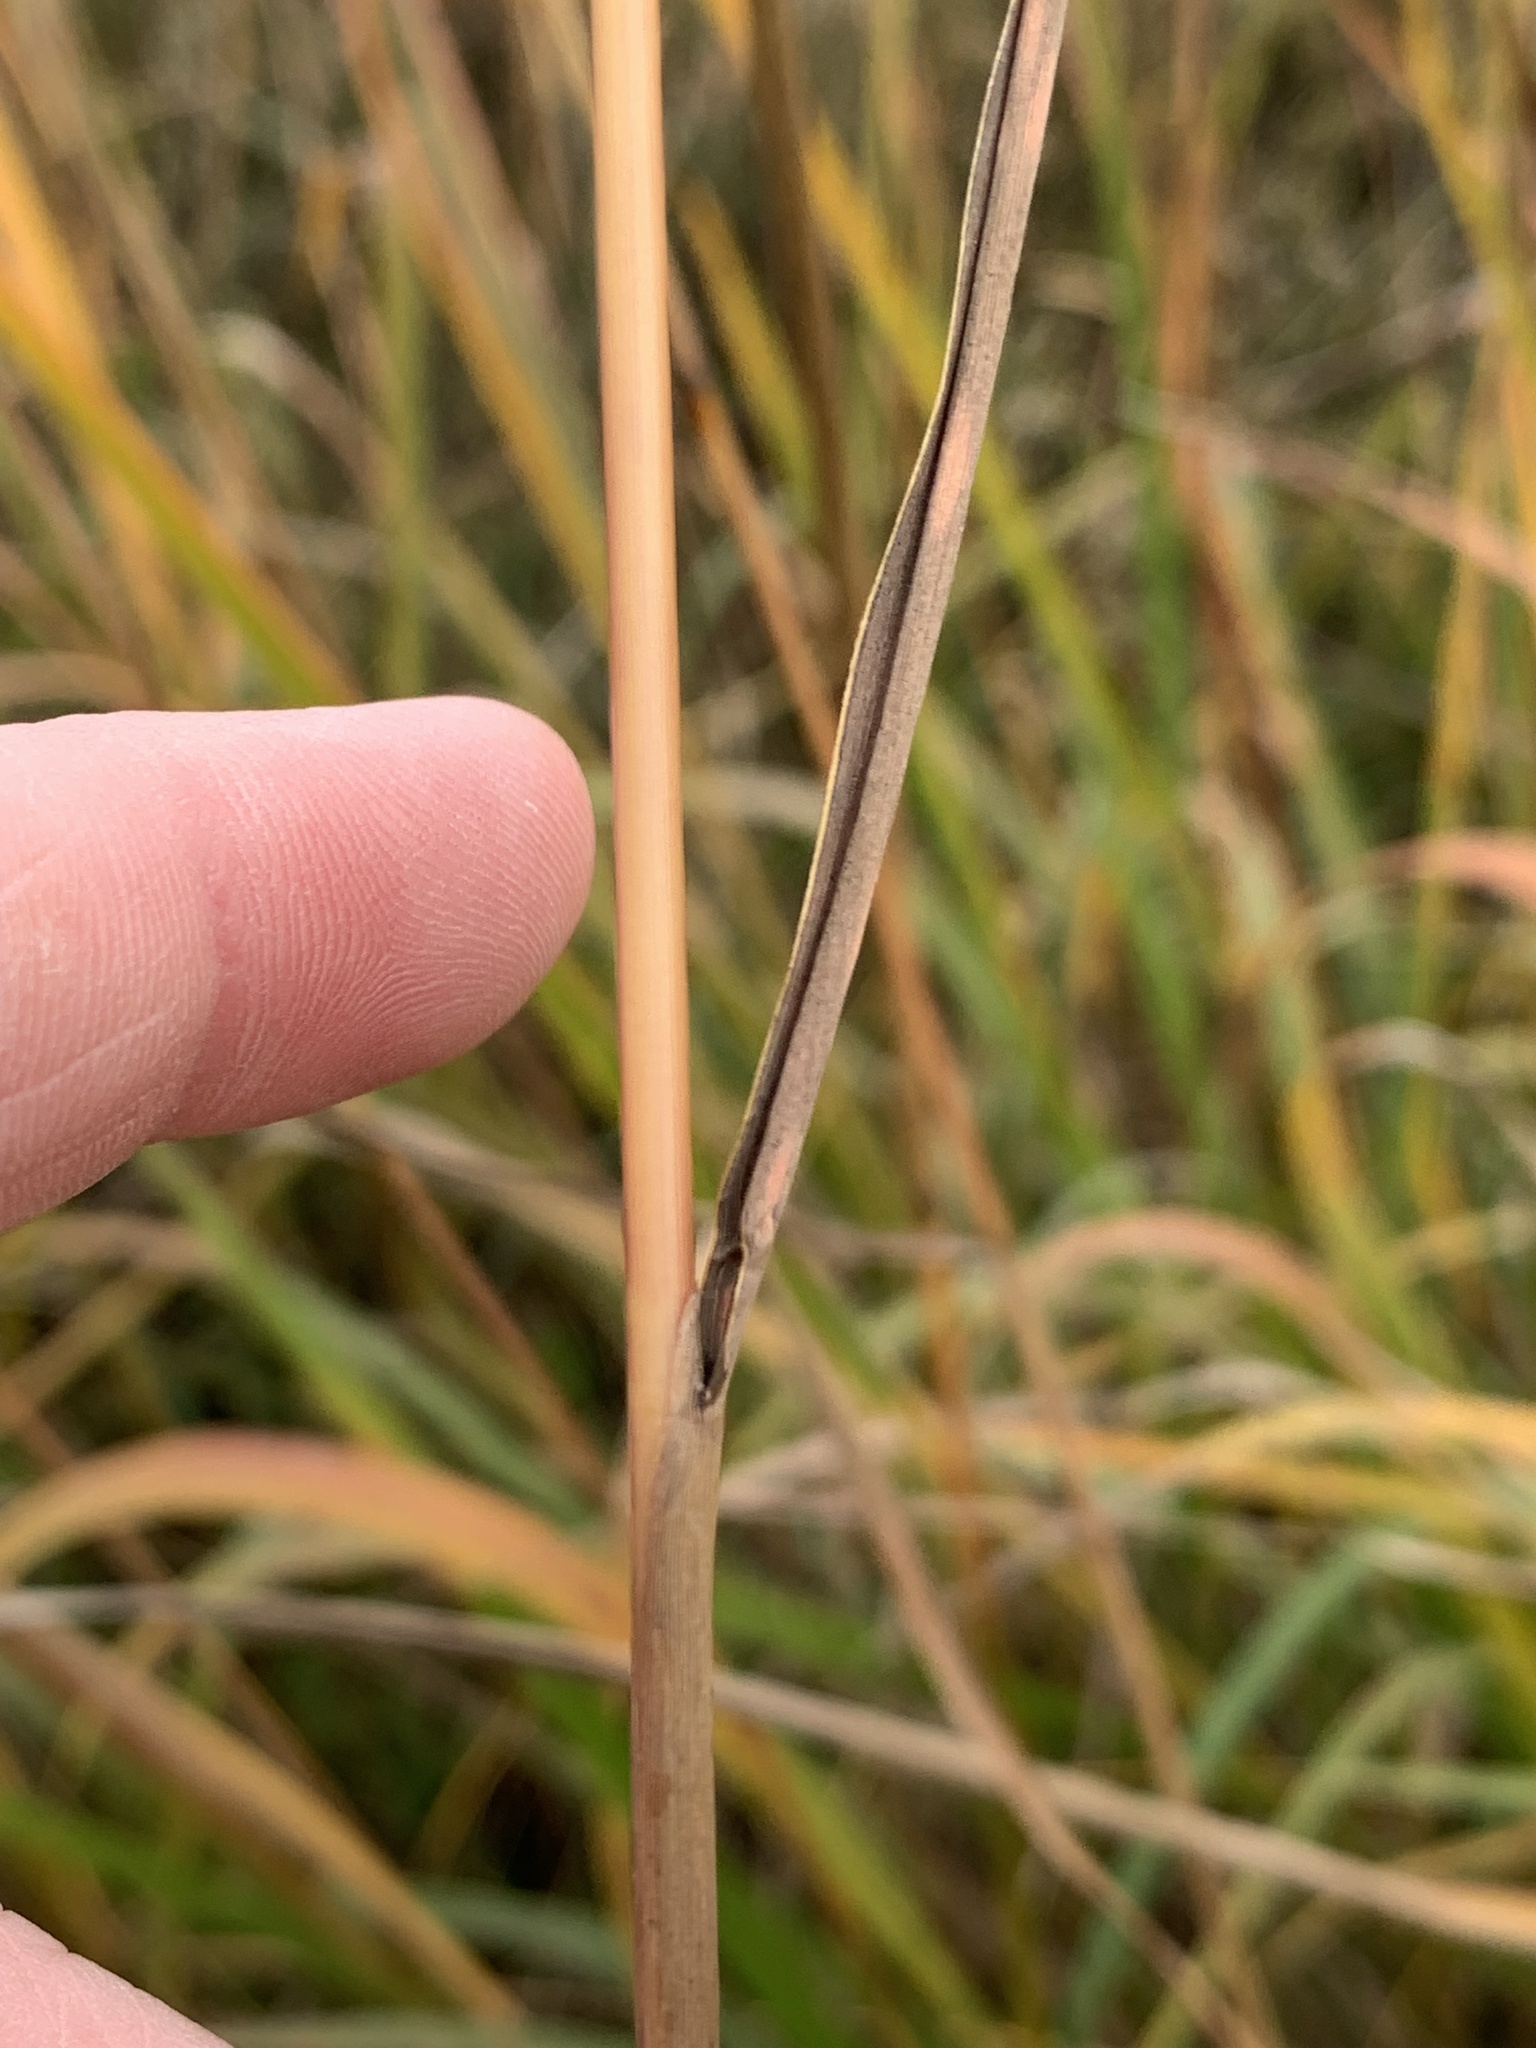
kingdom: Plantae
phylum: Tracheophyta
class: Liliopsida
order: Poales
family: Poaceae
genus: Sorghastrum
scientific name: Sorghastrum nutans
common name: Indian grass
